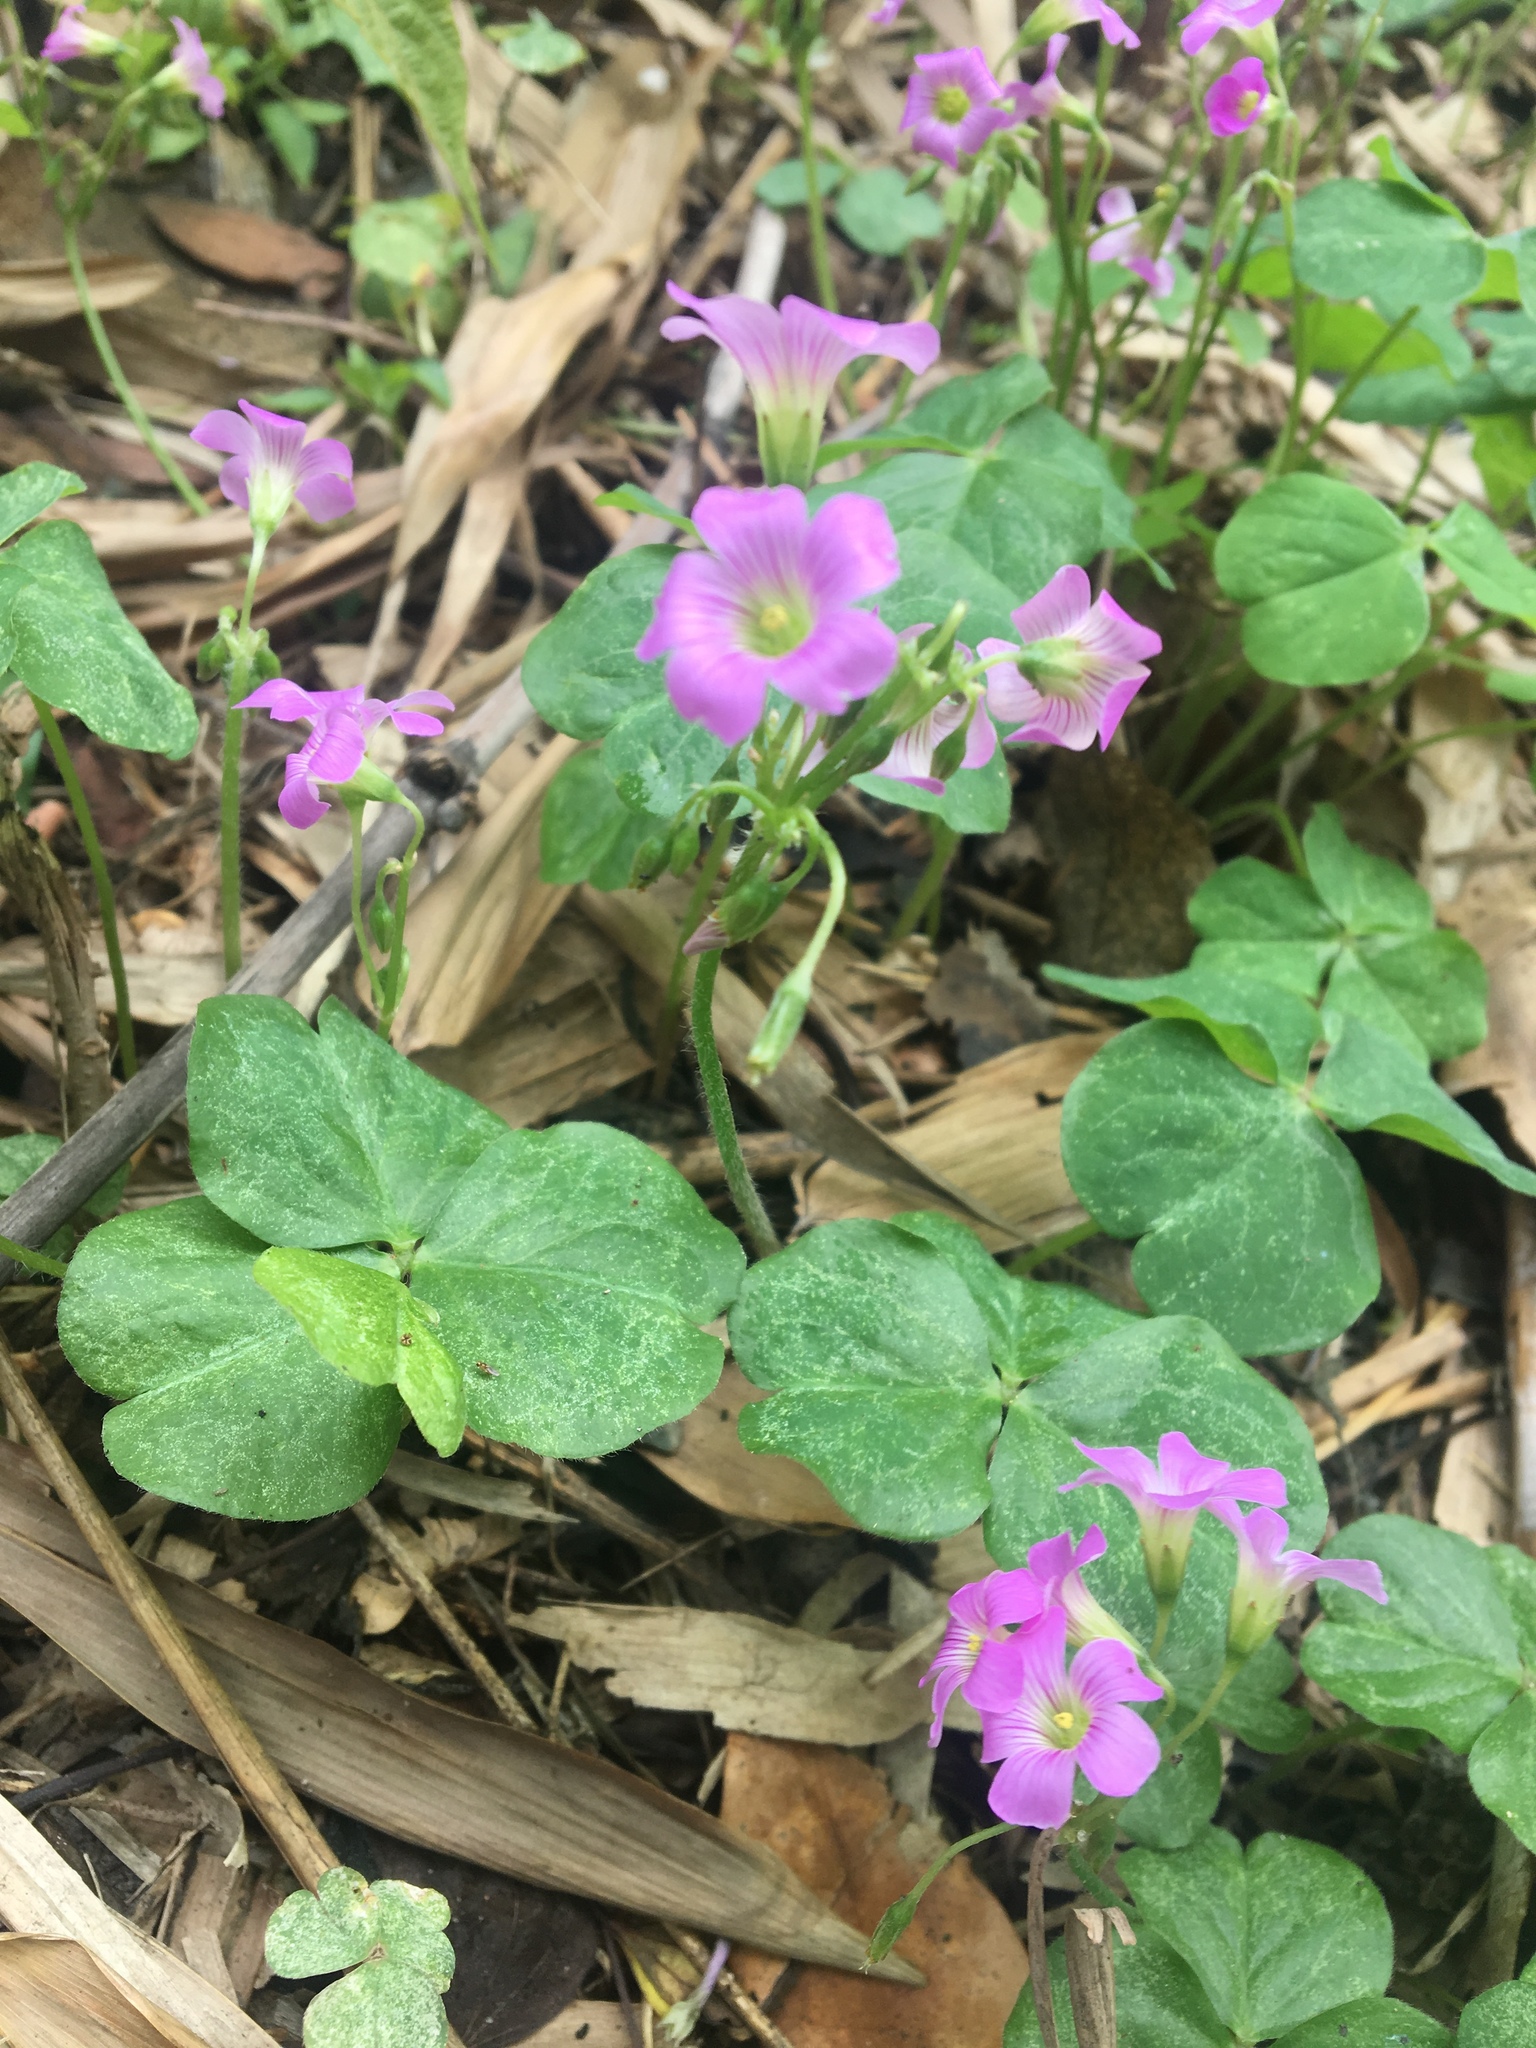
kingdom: Plantae
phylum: Tracheophyta
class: Magnoliopsida
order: Oxalidales
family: Oxalidaceae
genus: Oxalis
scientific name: Oxalis debilis
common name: Large-flowered pink-sorrel
